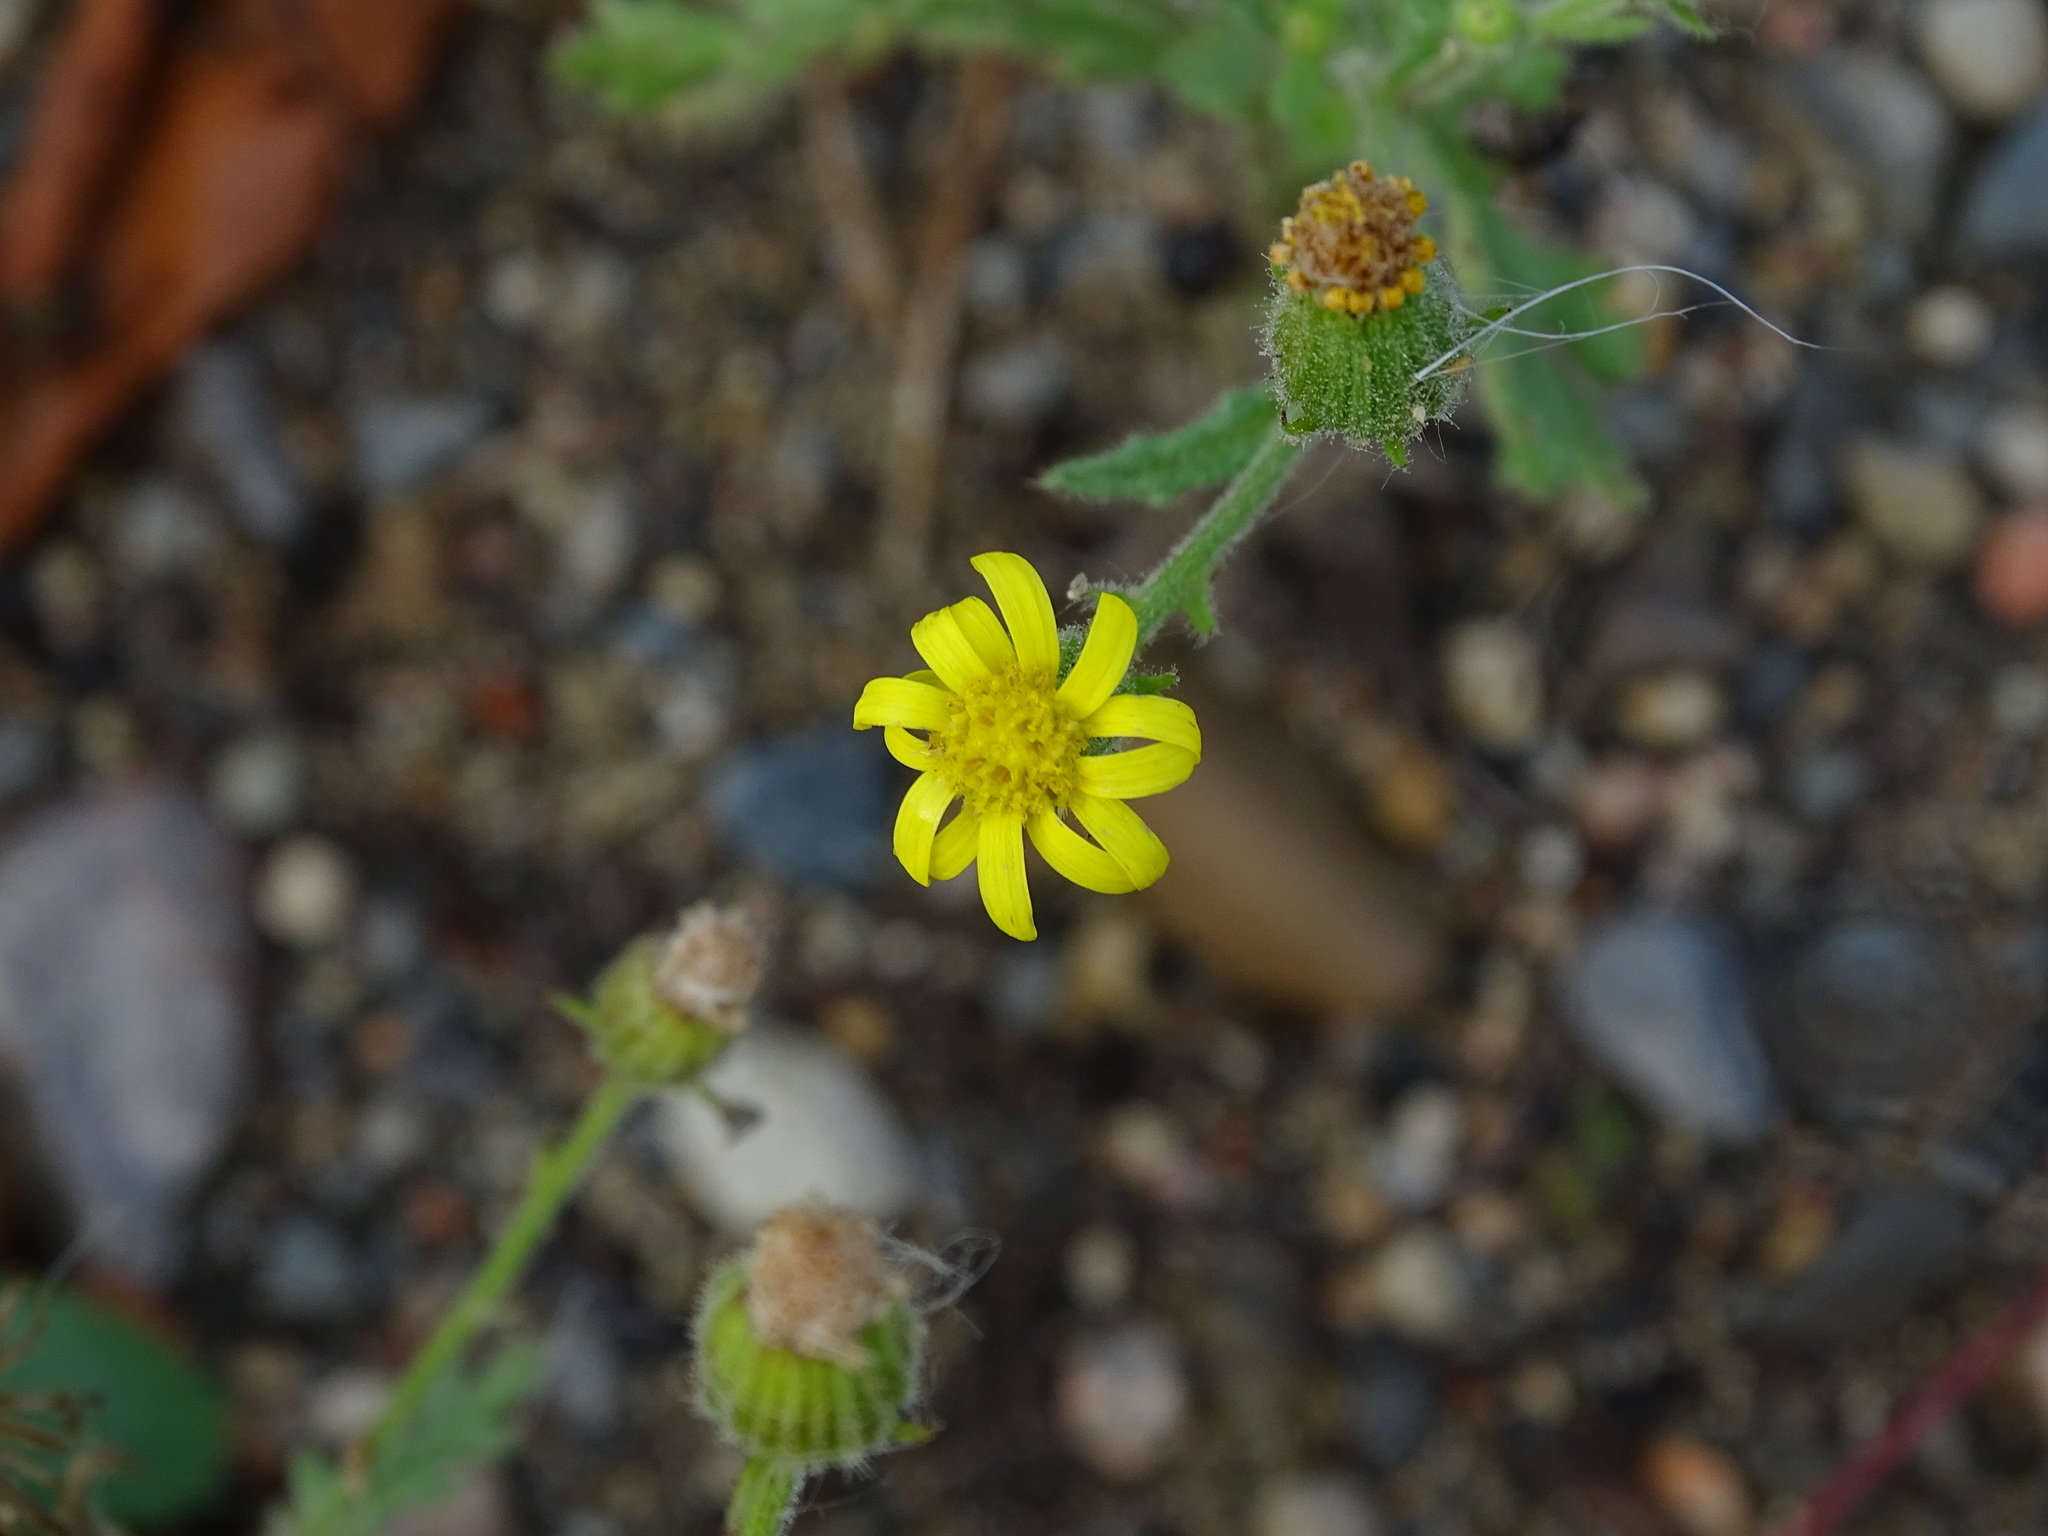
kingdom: Plantae
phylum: Tracheophyta
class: Magnoliopsida
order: Asterales
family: Asteraceae
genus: Senecio
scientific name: Senecio viscosus
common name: Sticky groundsel
